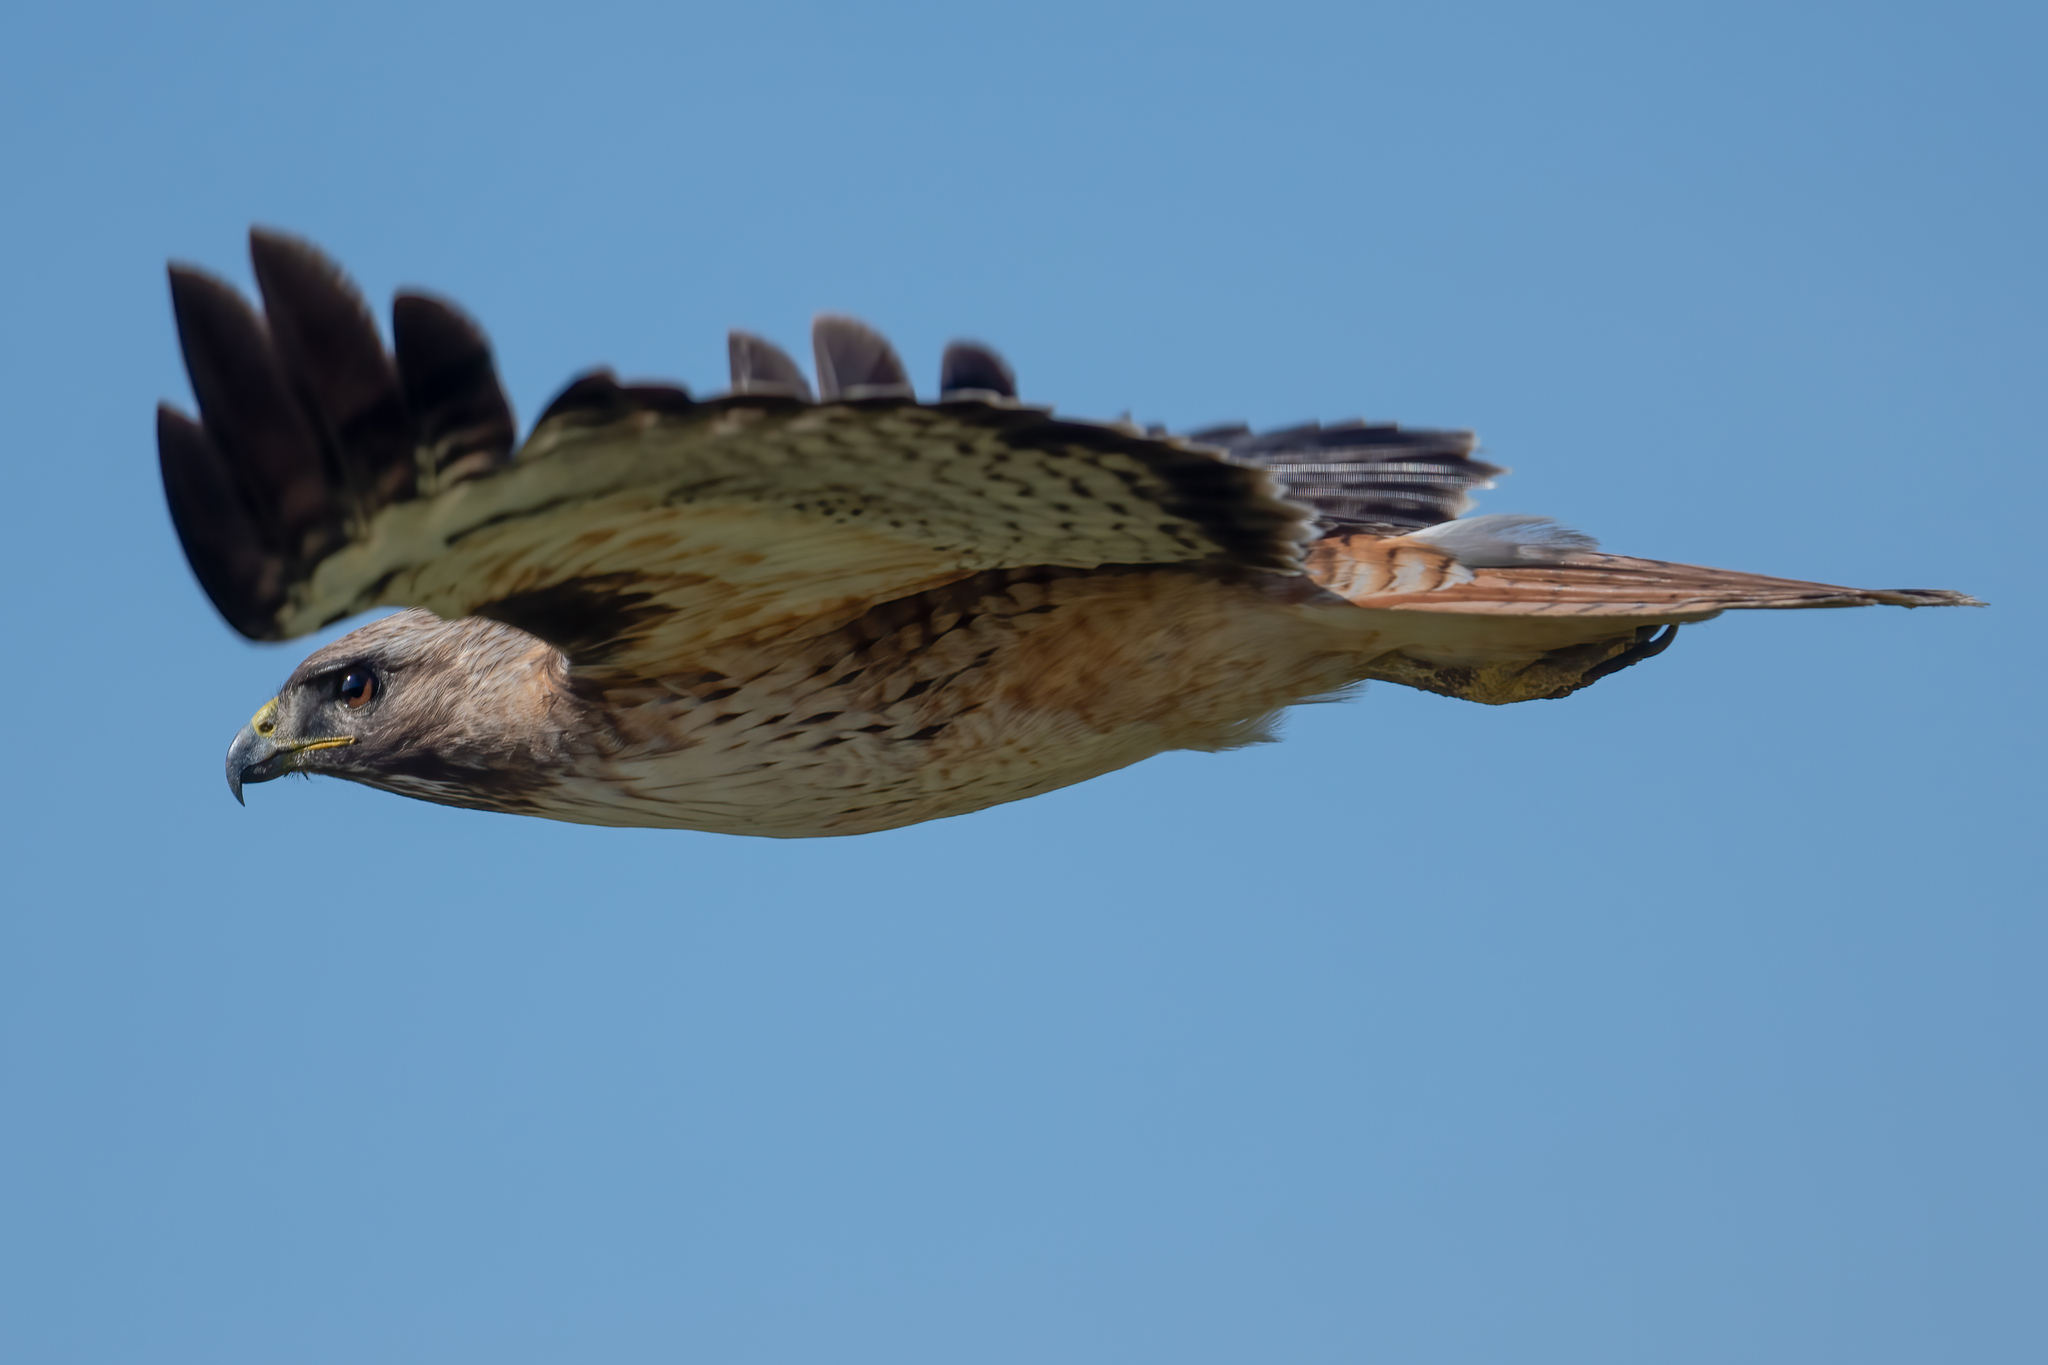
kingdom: Animalia
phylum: Chordata
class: Aves
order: Accipitriformes
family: Accipitridae
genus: Buteo
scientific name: Buteo jamaicensis
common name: Red-tailed hawk
